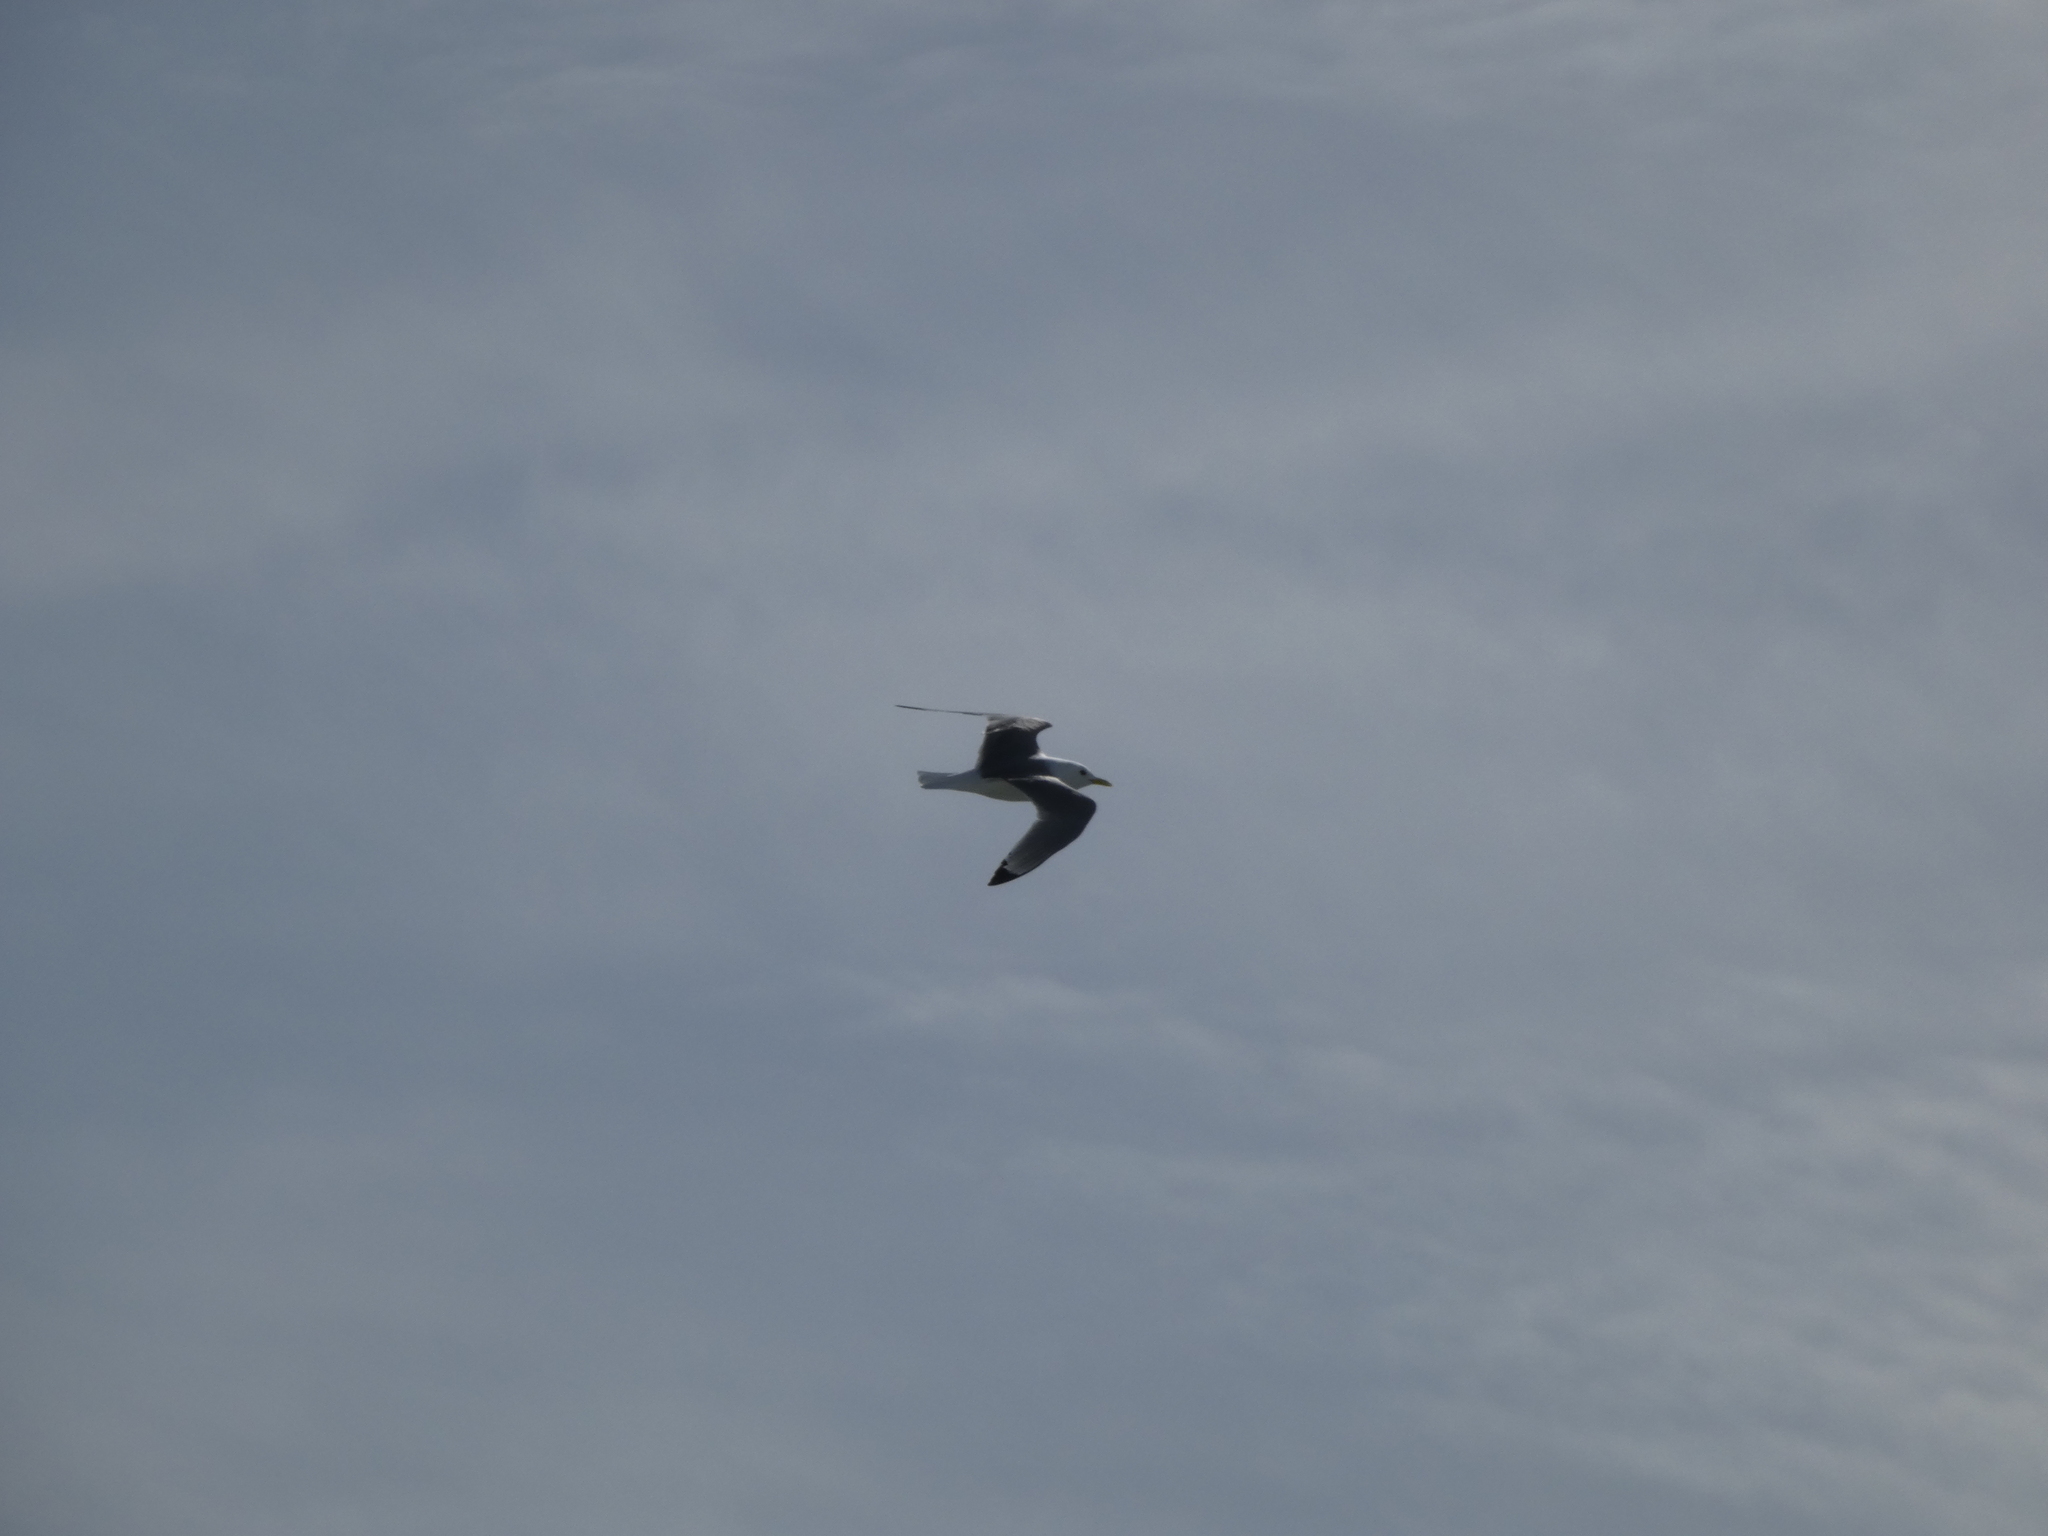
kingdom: Animalia
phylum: Chordata
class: Aves
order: Charadriiformes
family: Laridae
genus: Rissa
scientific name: Rissa tridactyla
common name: Black-legged kittiwake
